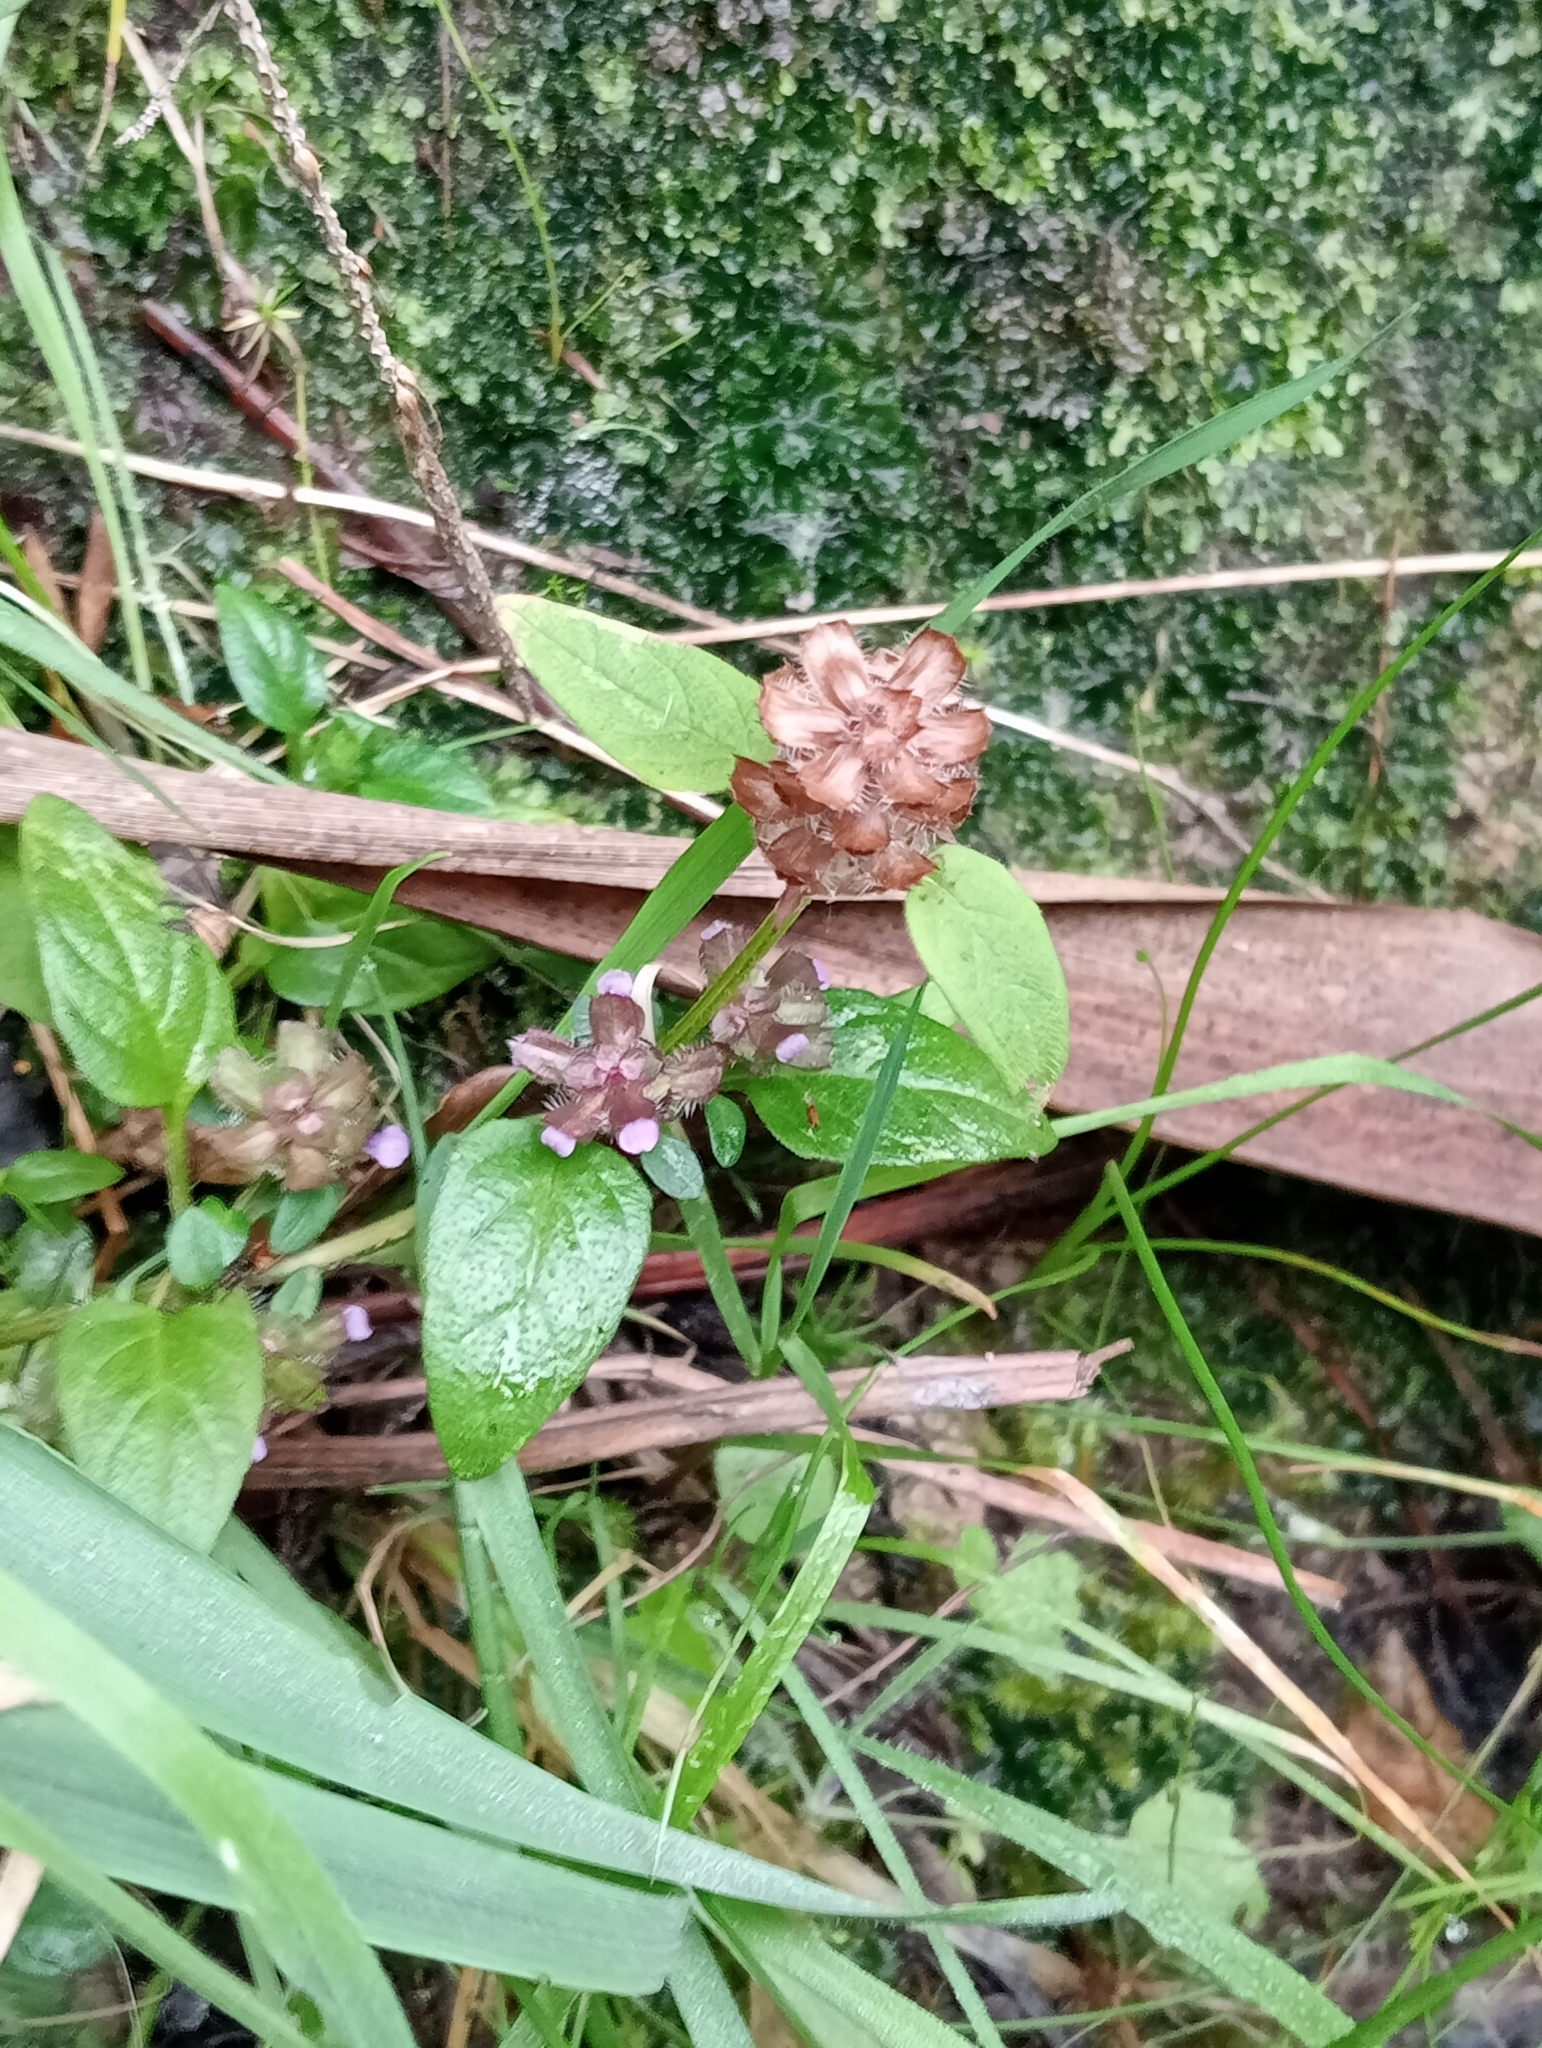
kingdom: Plantae
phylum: Tracheophyta
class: Magnoliopsida
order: Lamiales
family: Lamiaceae
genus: Prunella
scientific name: Prunella vulgaris
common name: Heal-all
